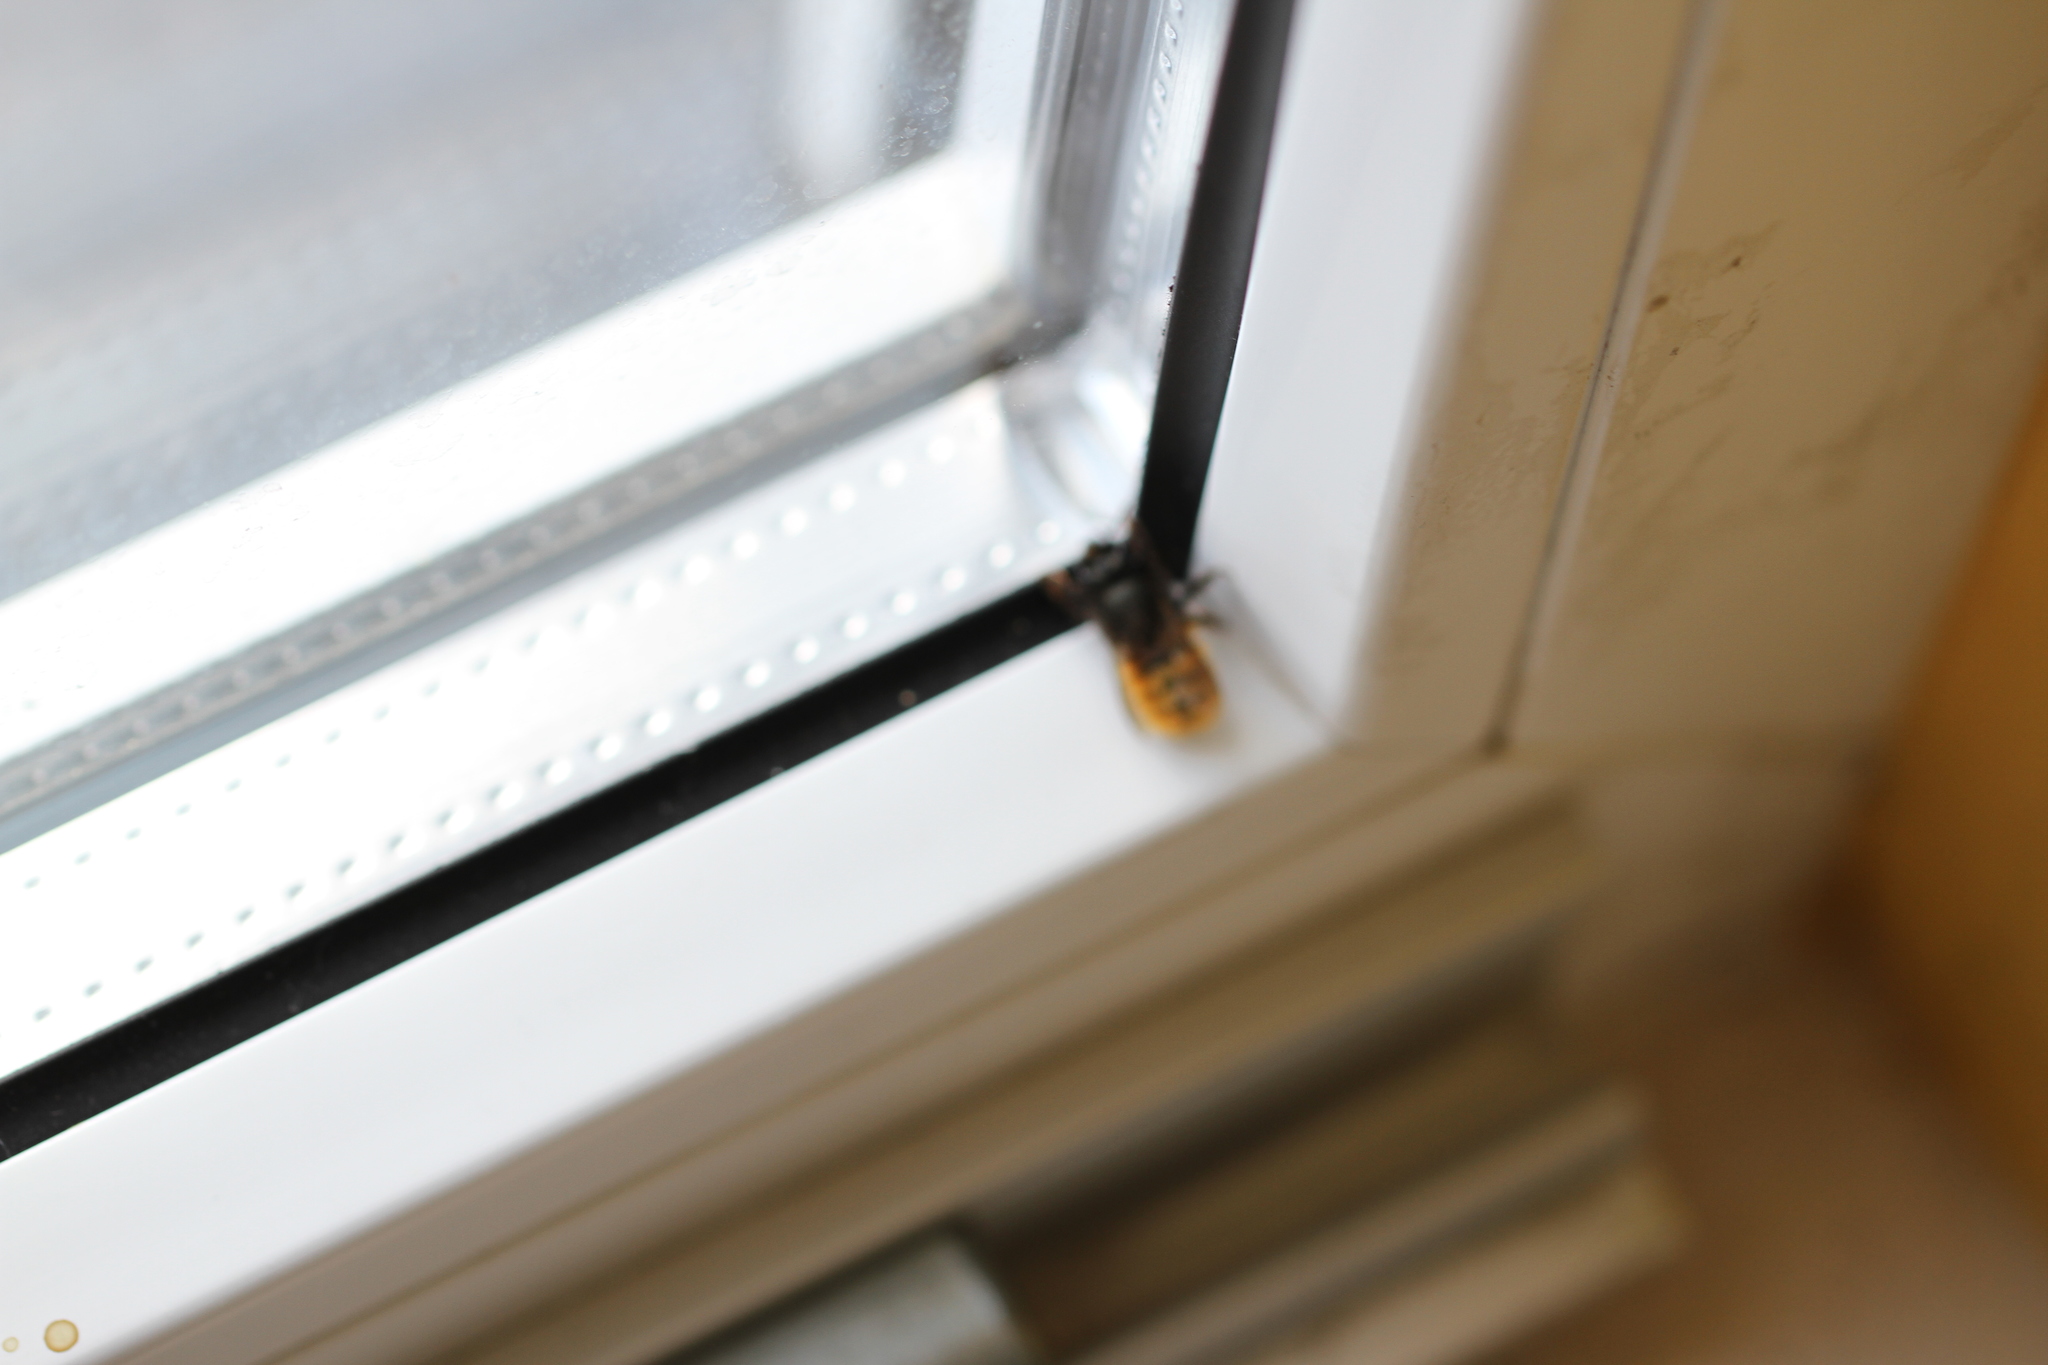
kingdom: Animalia
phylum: Arthropoda
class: Insecta
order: Hymenoptera
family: Megachilidae
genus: Osmia
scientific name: Osmia cornuta
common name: Mason bee
